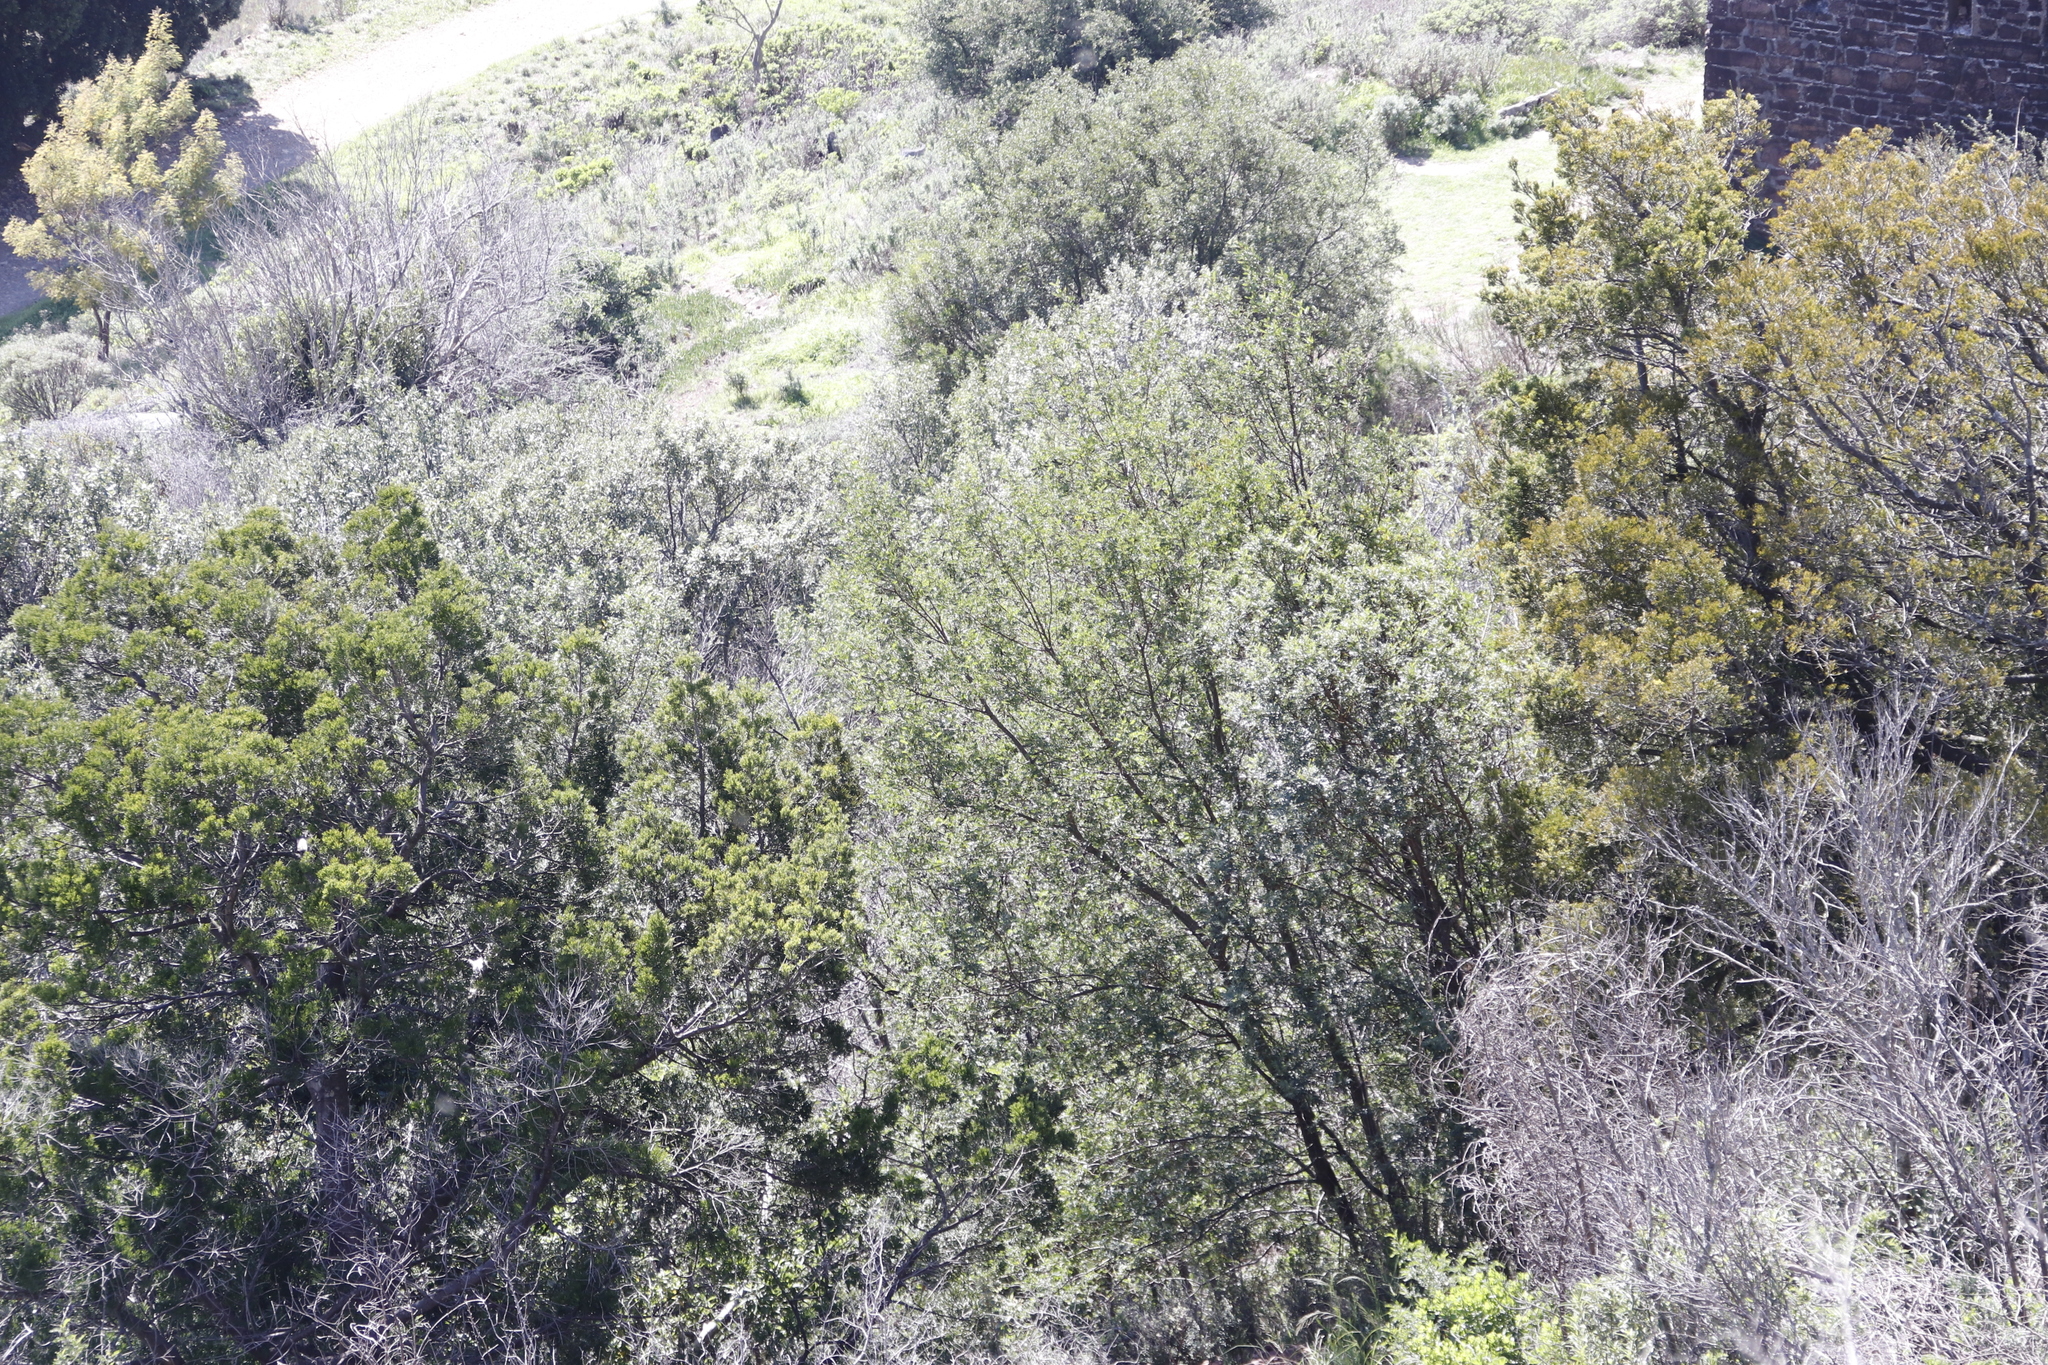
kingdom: Plantae
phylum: Tracheophyta
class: Magnoliopsida
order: Malpighiales
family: Achariaceae
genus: Kiggelaria
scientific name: Kiggelaria africana
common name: Wild peach
